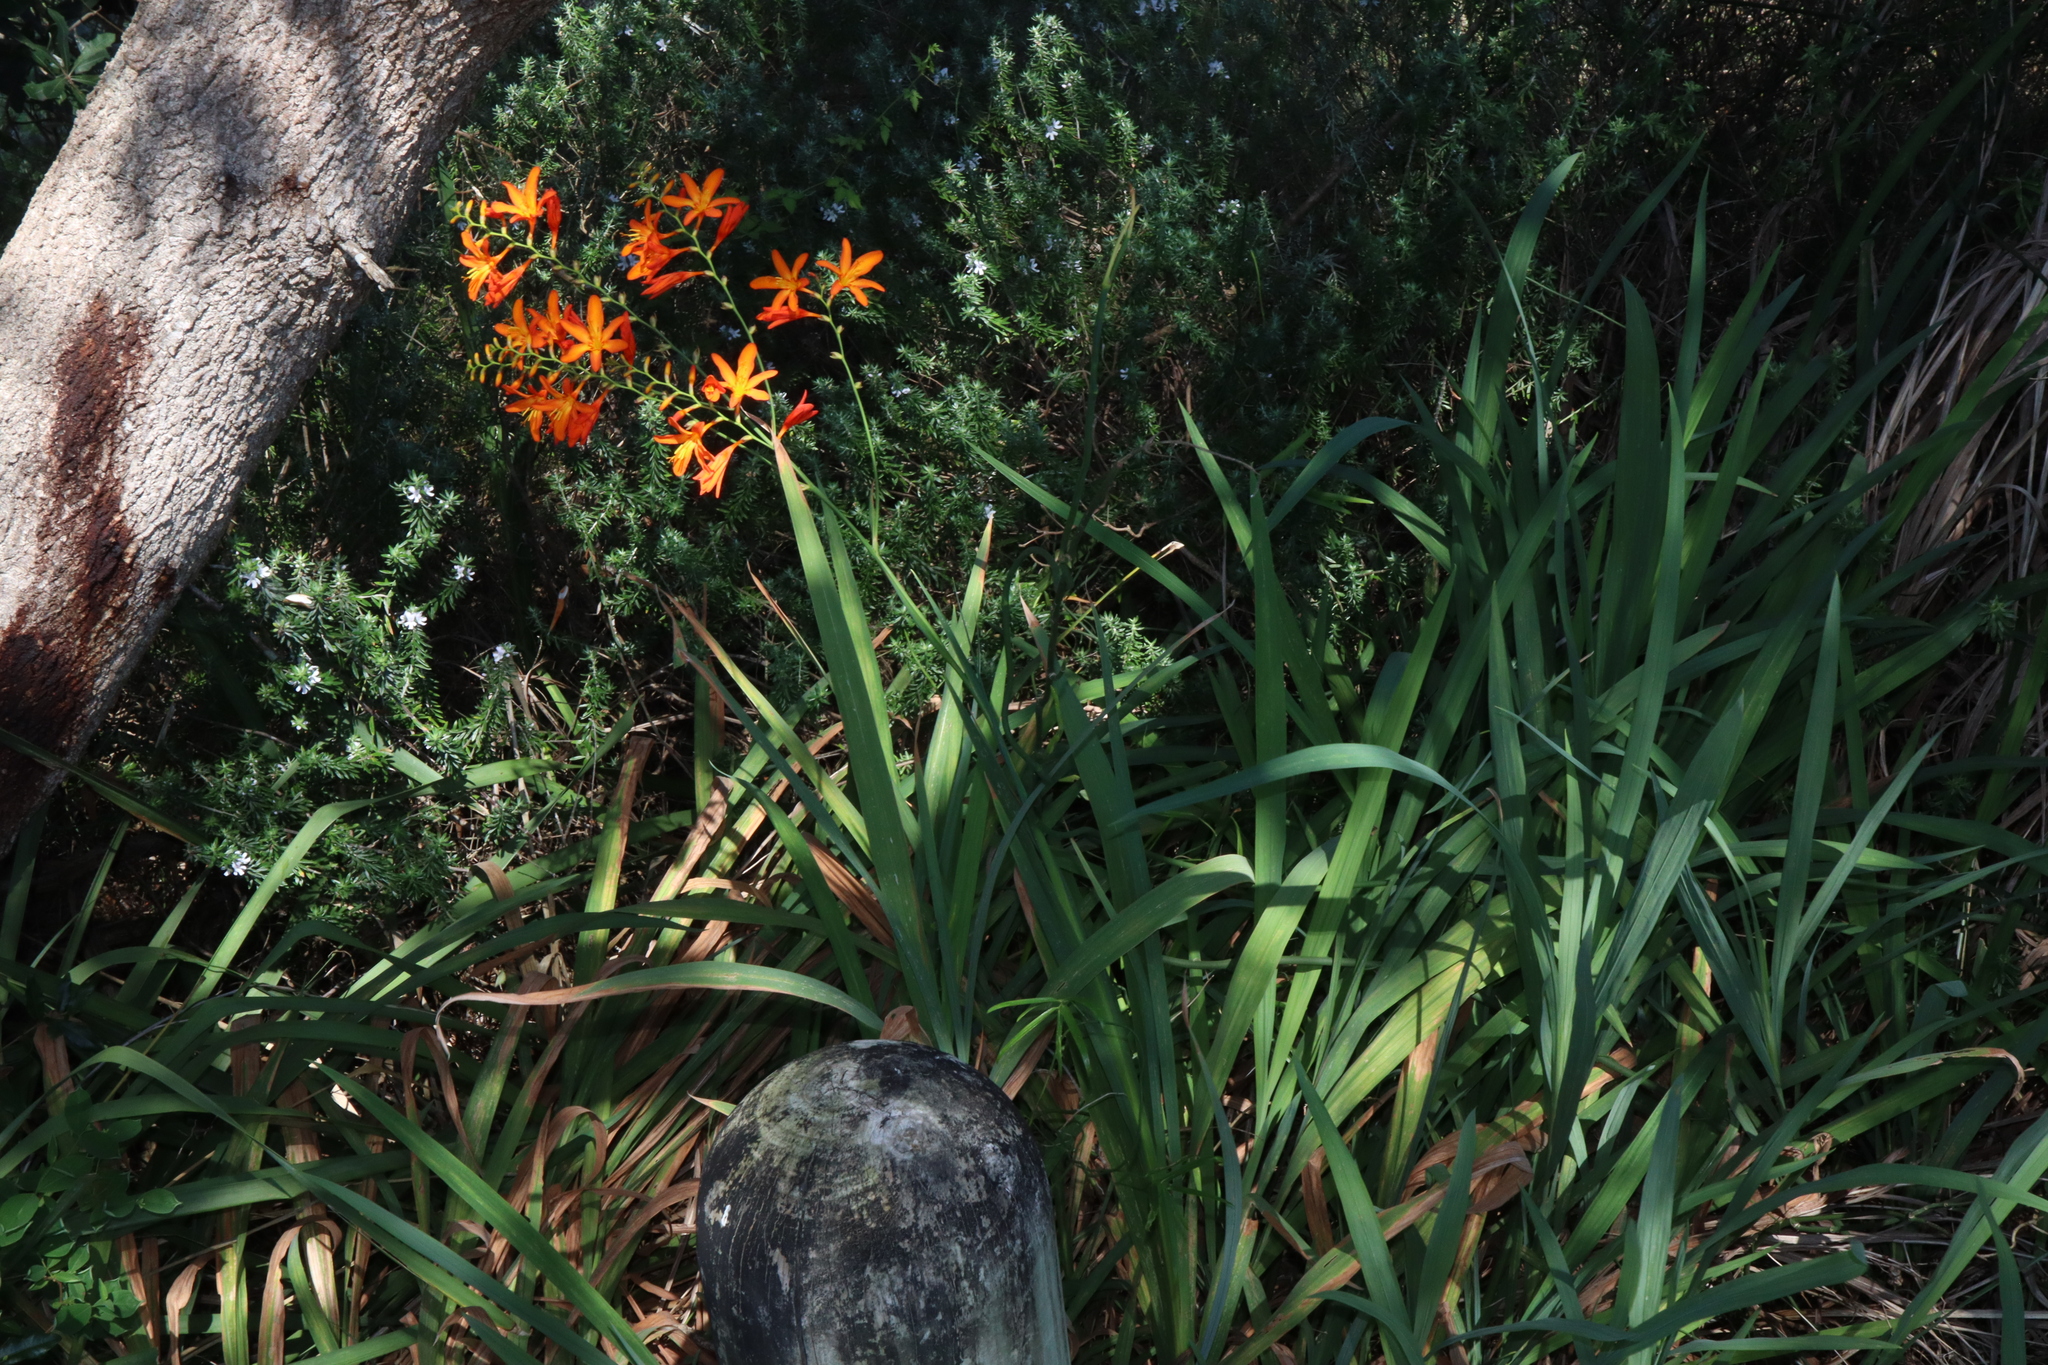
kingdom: Plantae
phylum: Tracheophyta
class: Liliopsida
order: Asparagales
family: Iridaceae
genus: Crocosmia
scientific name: Crocosmia crocosmiiflora
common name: Montbretia
